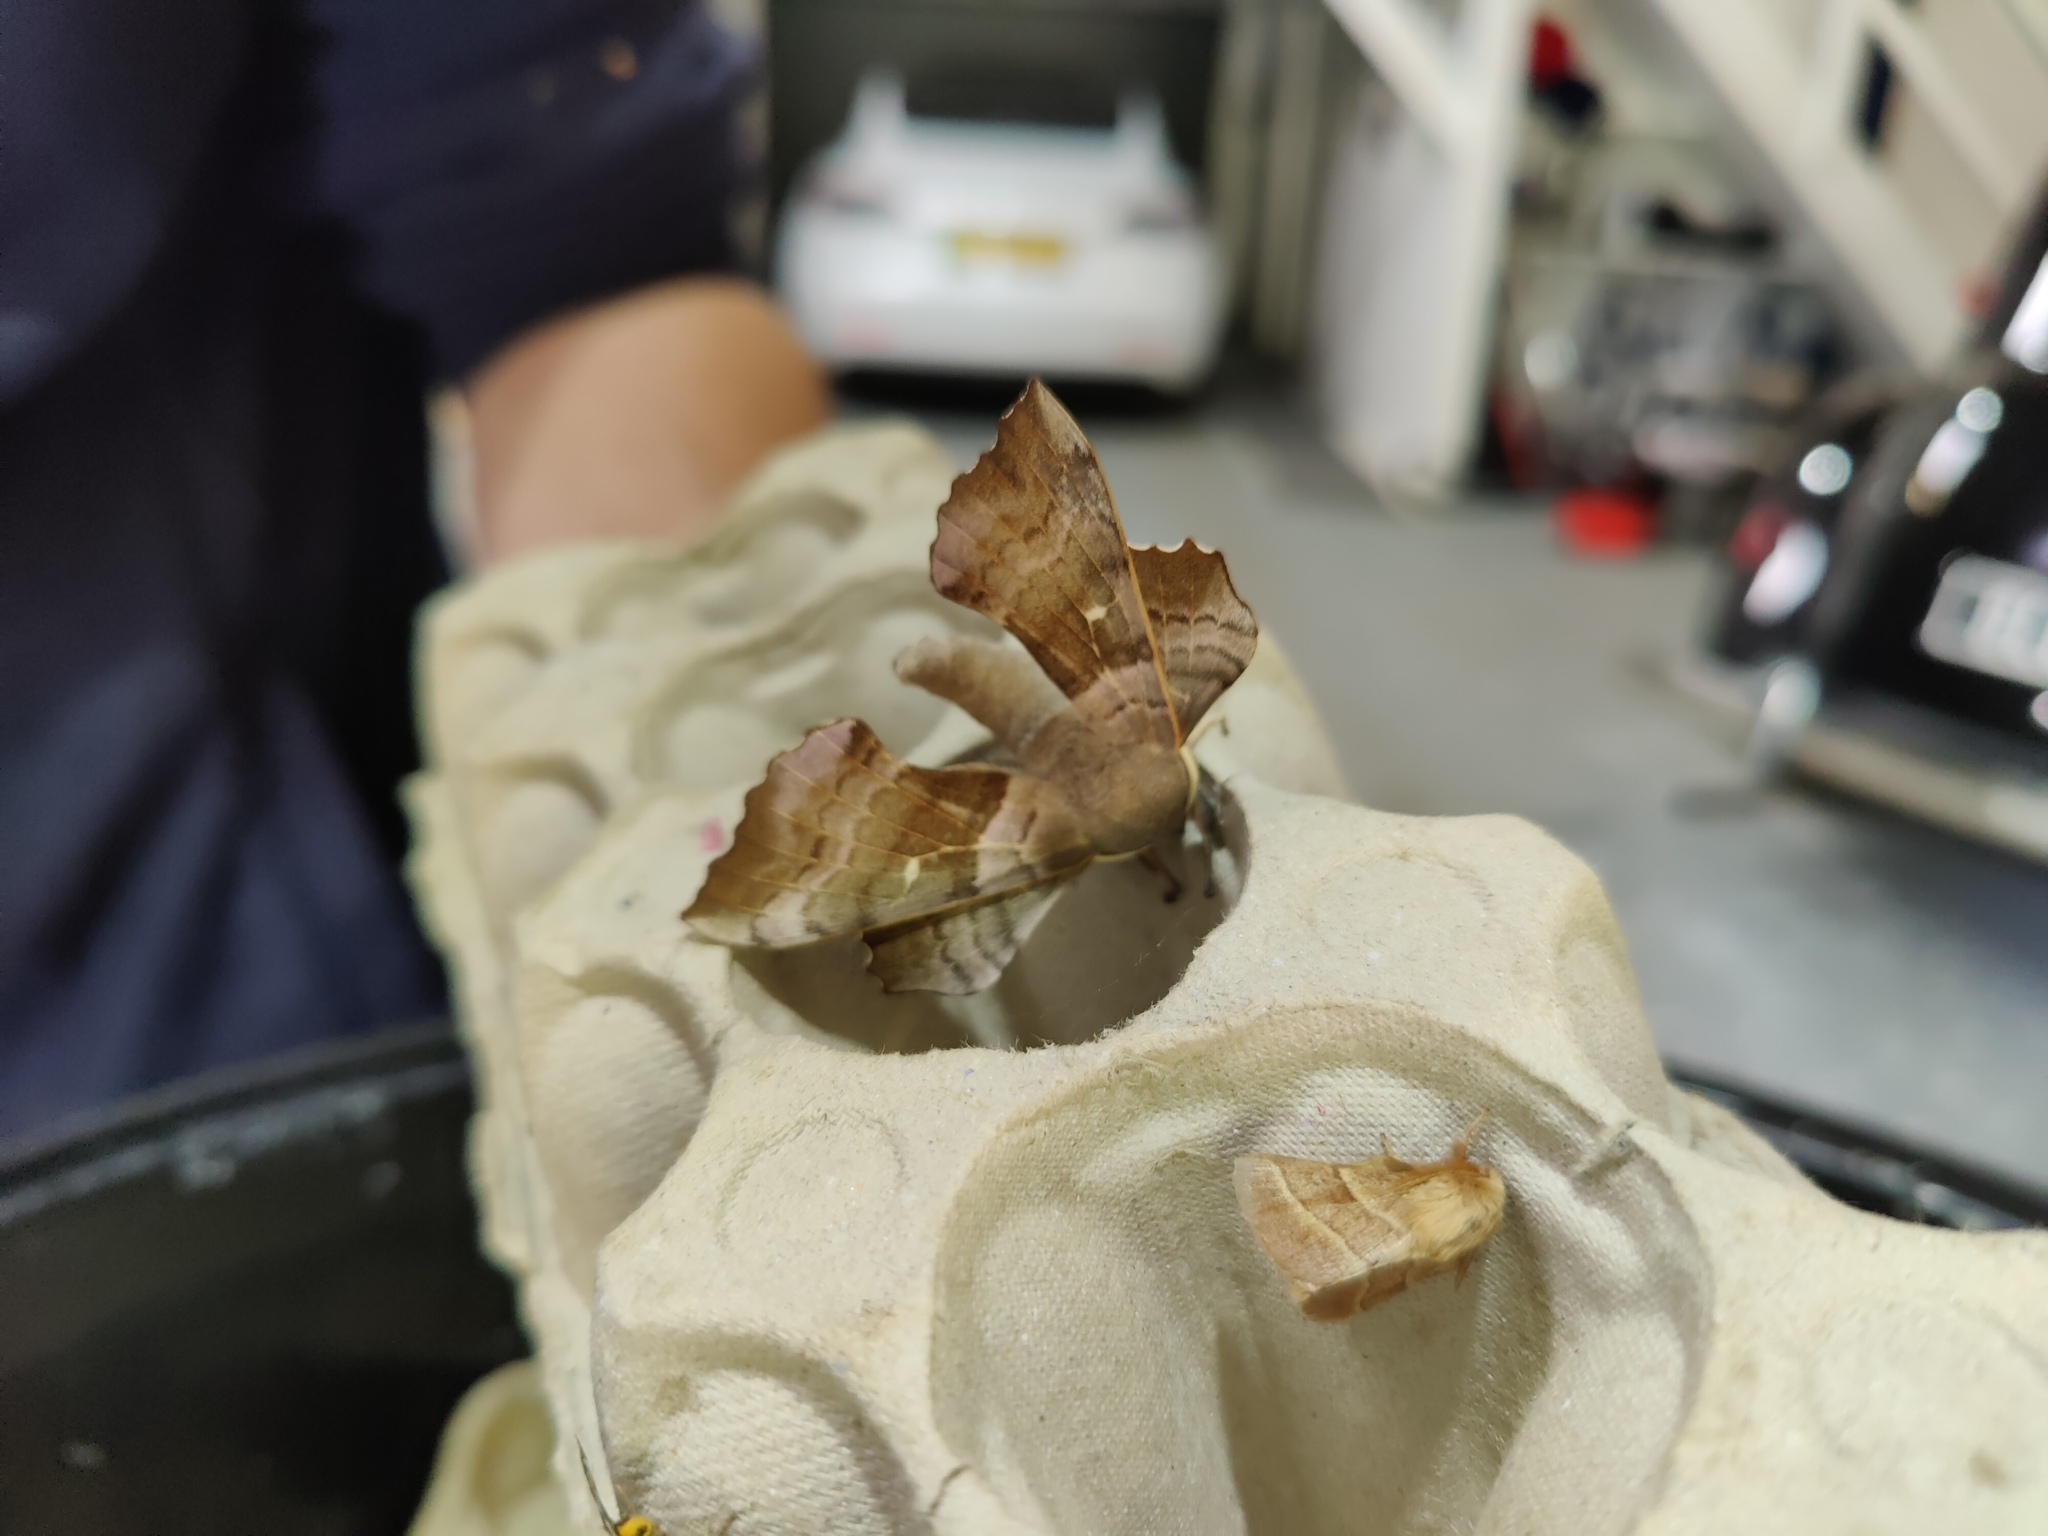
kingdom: Animalia
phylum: Arthropoda
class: Insecta
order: Lepidoptera
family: Sphingidae
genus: Laothoe
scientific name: Laothoe populi
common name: Poplar hawk-moth
